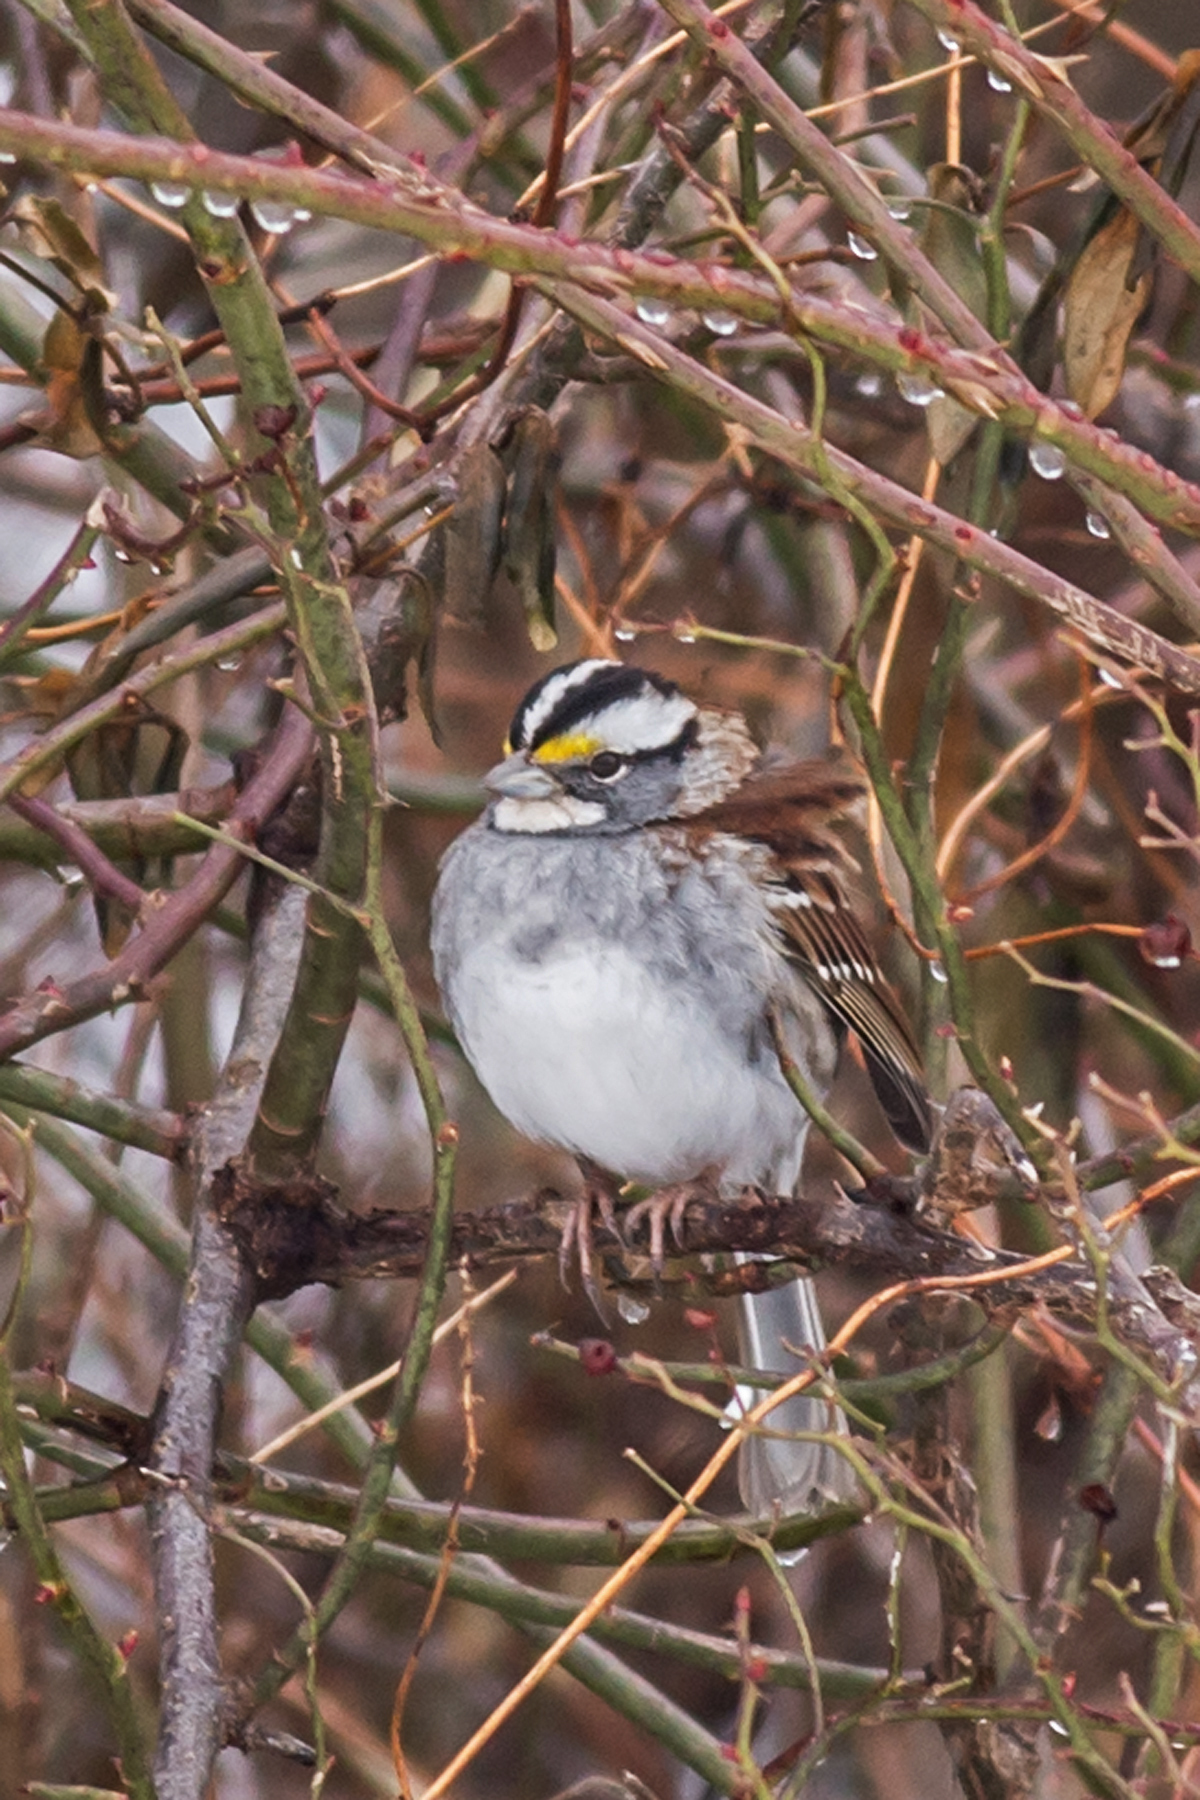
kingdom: Animalia
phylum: Chordata
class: Aves
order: Passeriformes
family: Passerellidae
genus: Zonotrichia
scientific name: Zonotrichia albicollis
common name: White-throated sparrow
